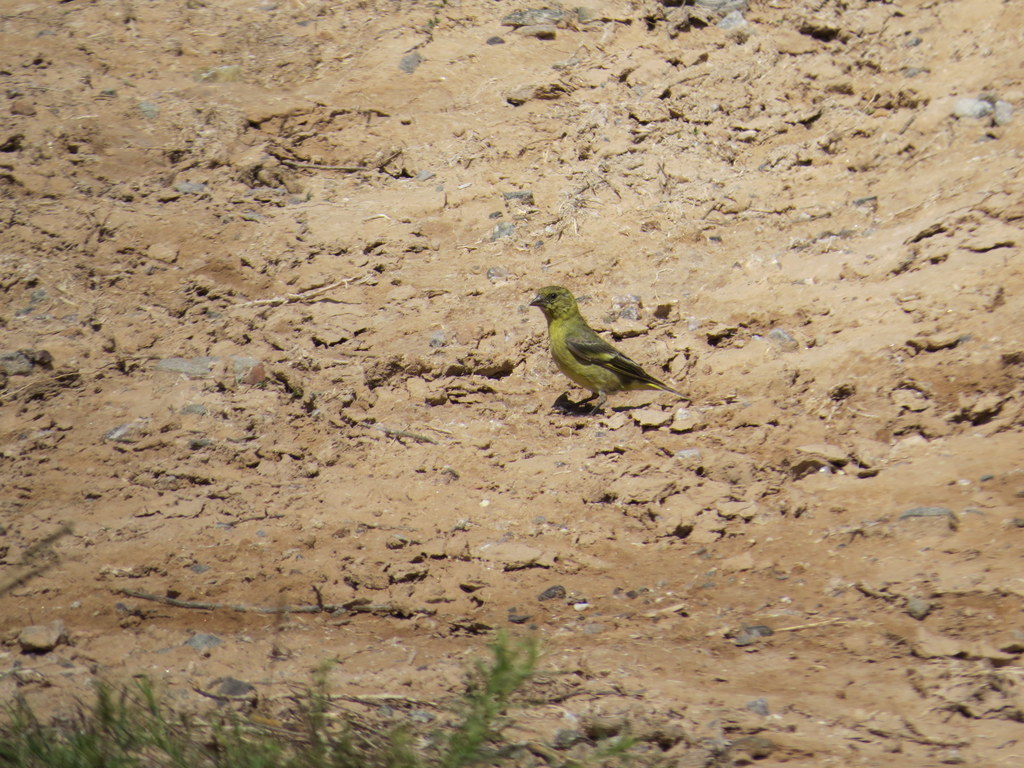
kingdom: Animalia
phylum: Chordata
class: Aves
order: Passeriformes
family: Fringillidae
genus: Spinus
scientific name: Spinus magellanicus
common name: Hooded siskin
